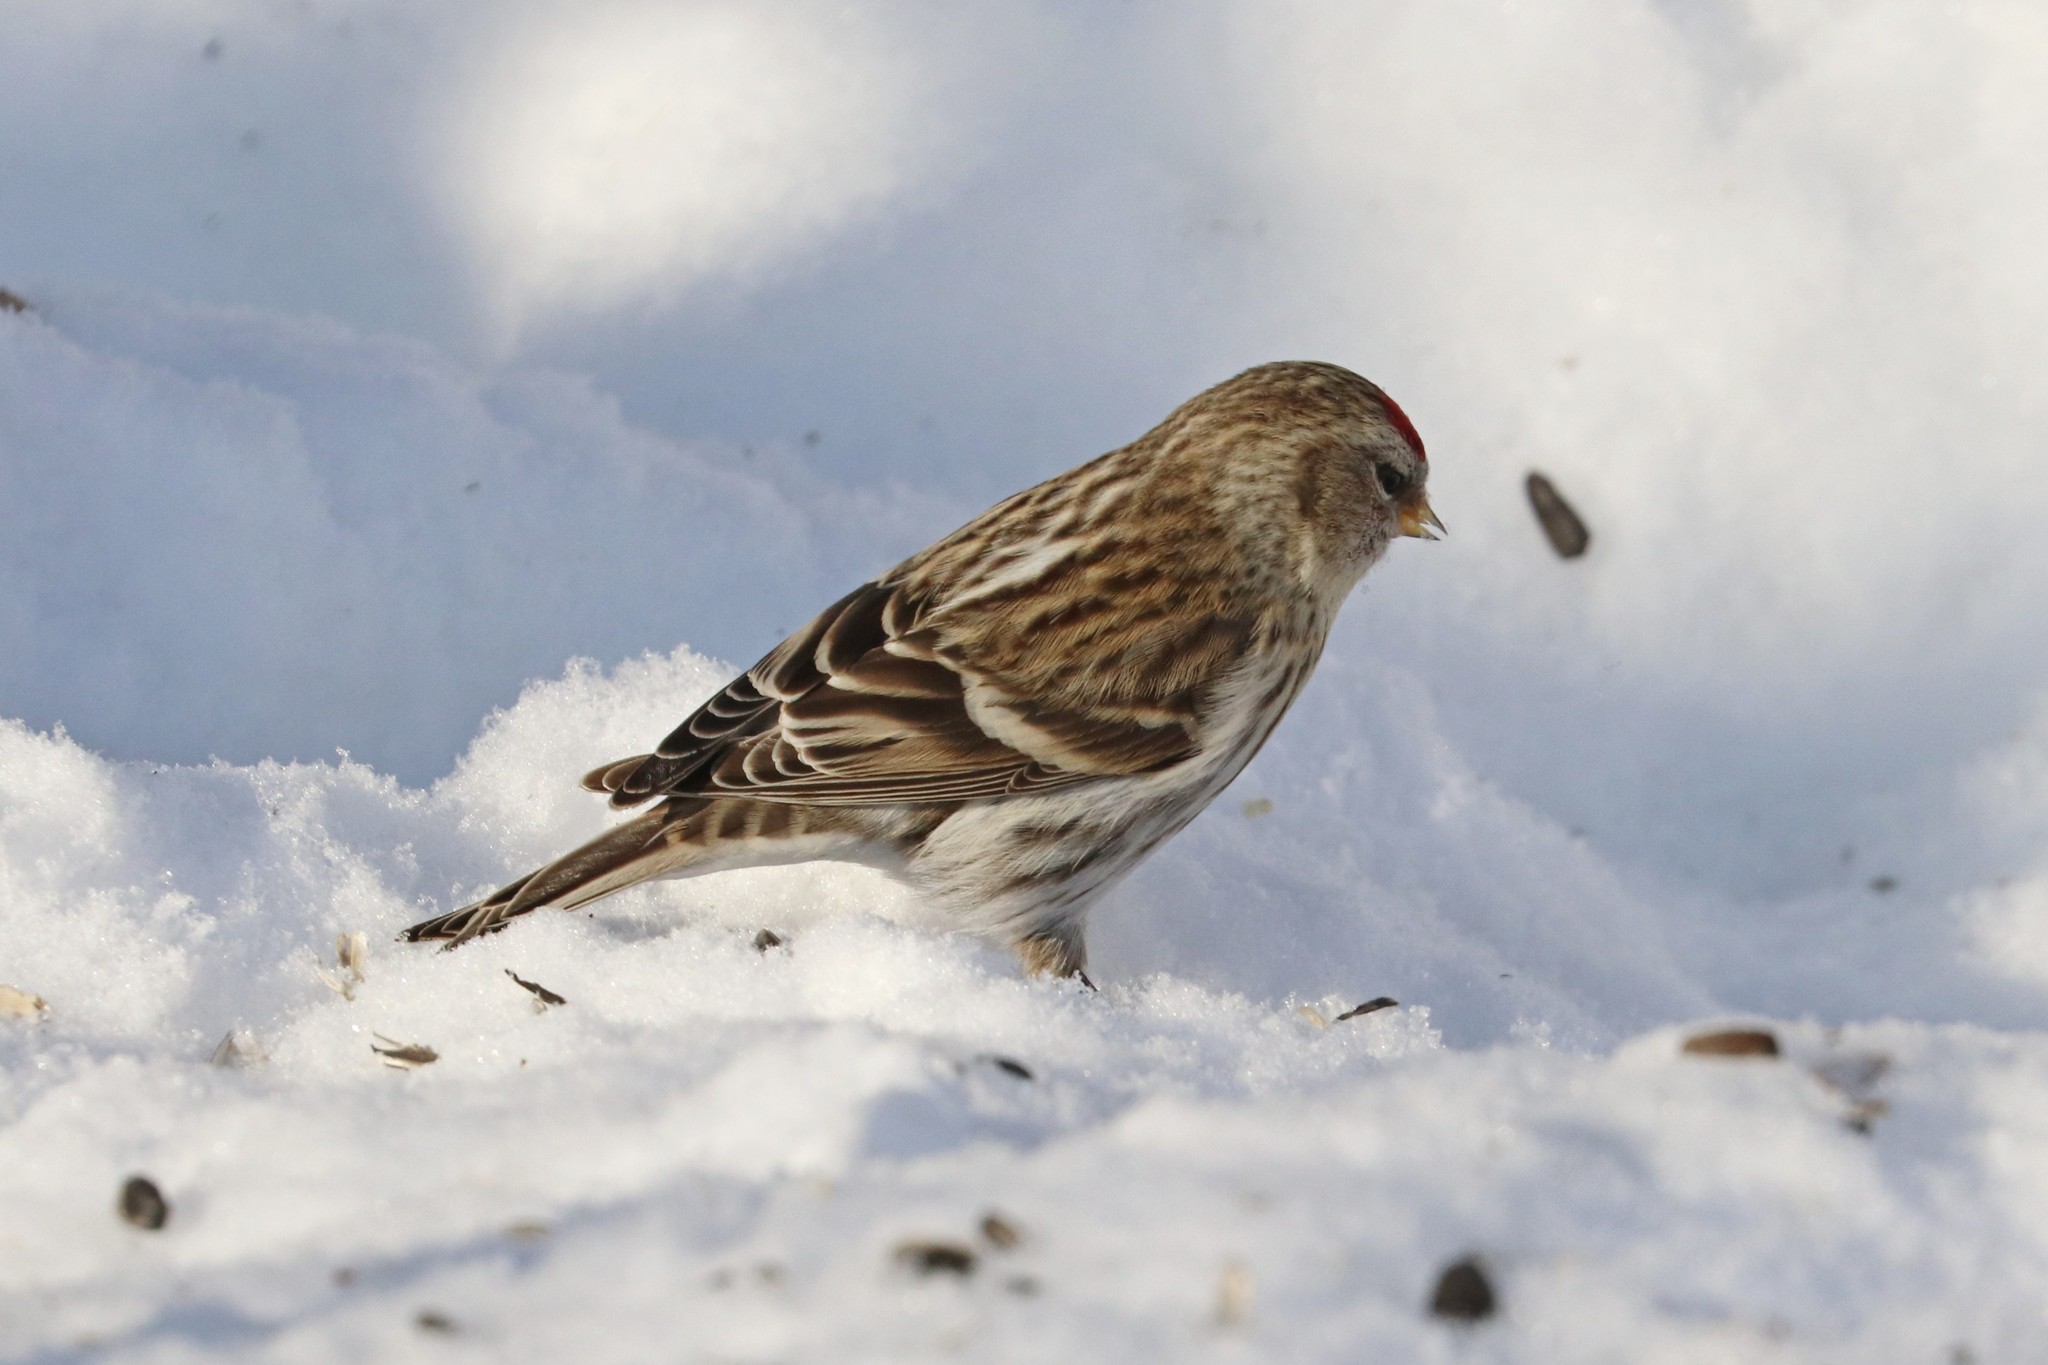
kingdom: Animalia
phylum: Chordata
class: Aves
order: Passeriformes
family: Fringillidae
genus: Acanthis
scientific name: Acanthis flammea
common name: Common redpoll
